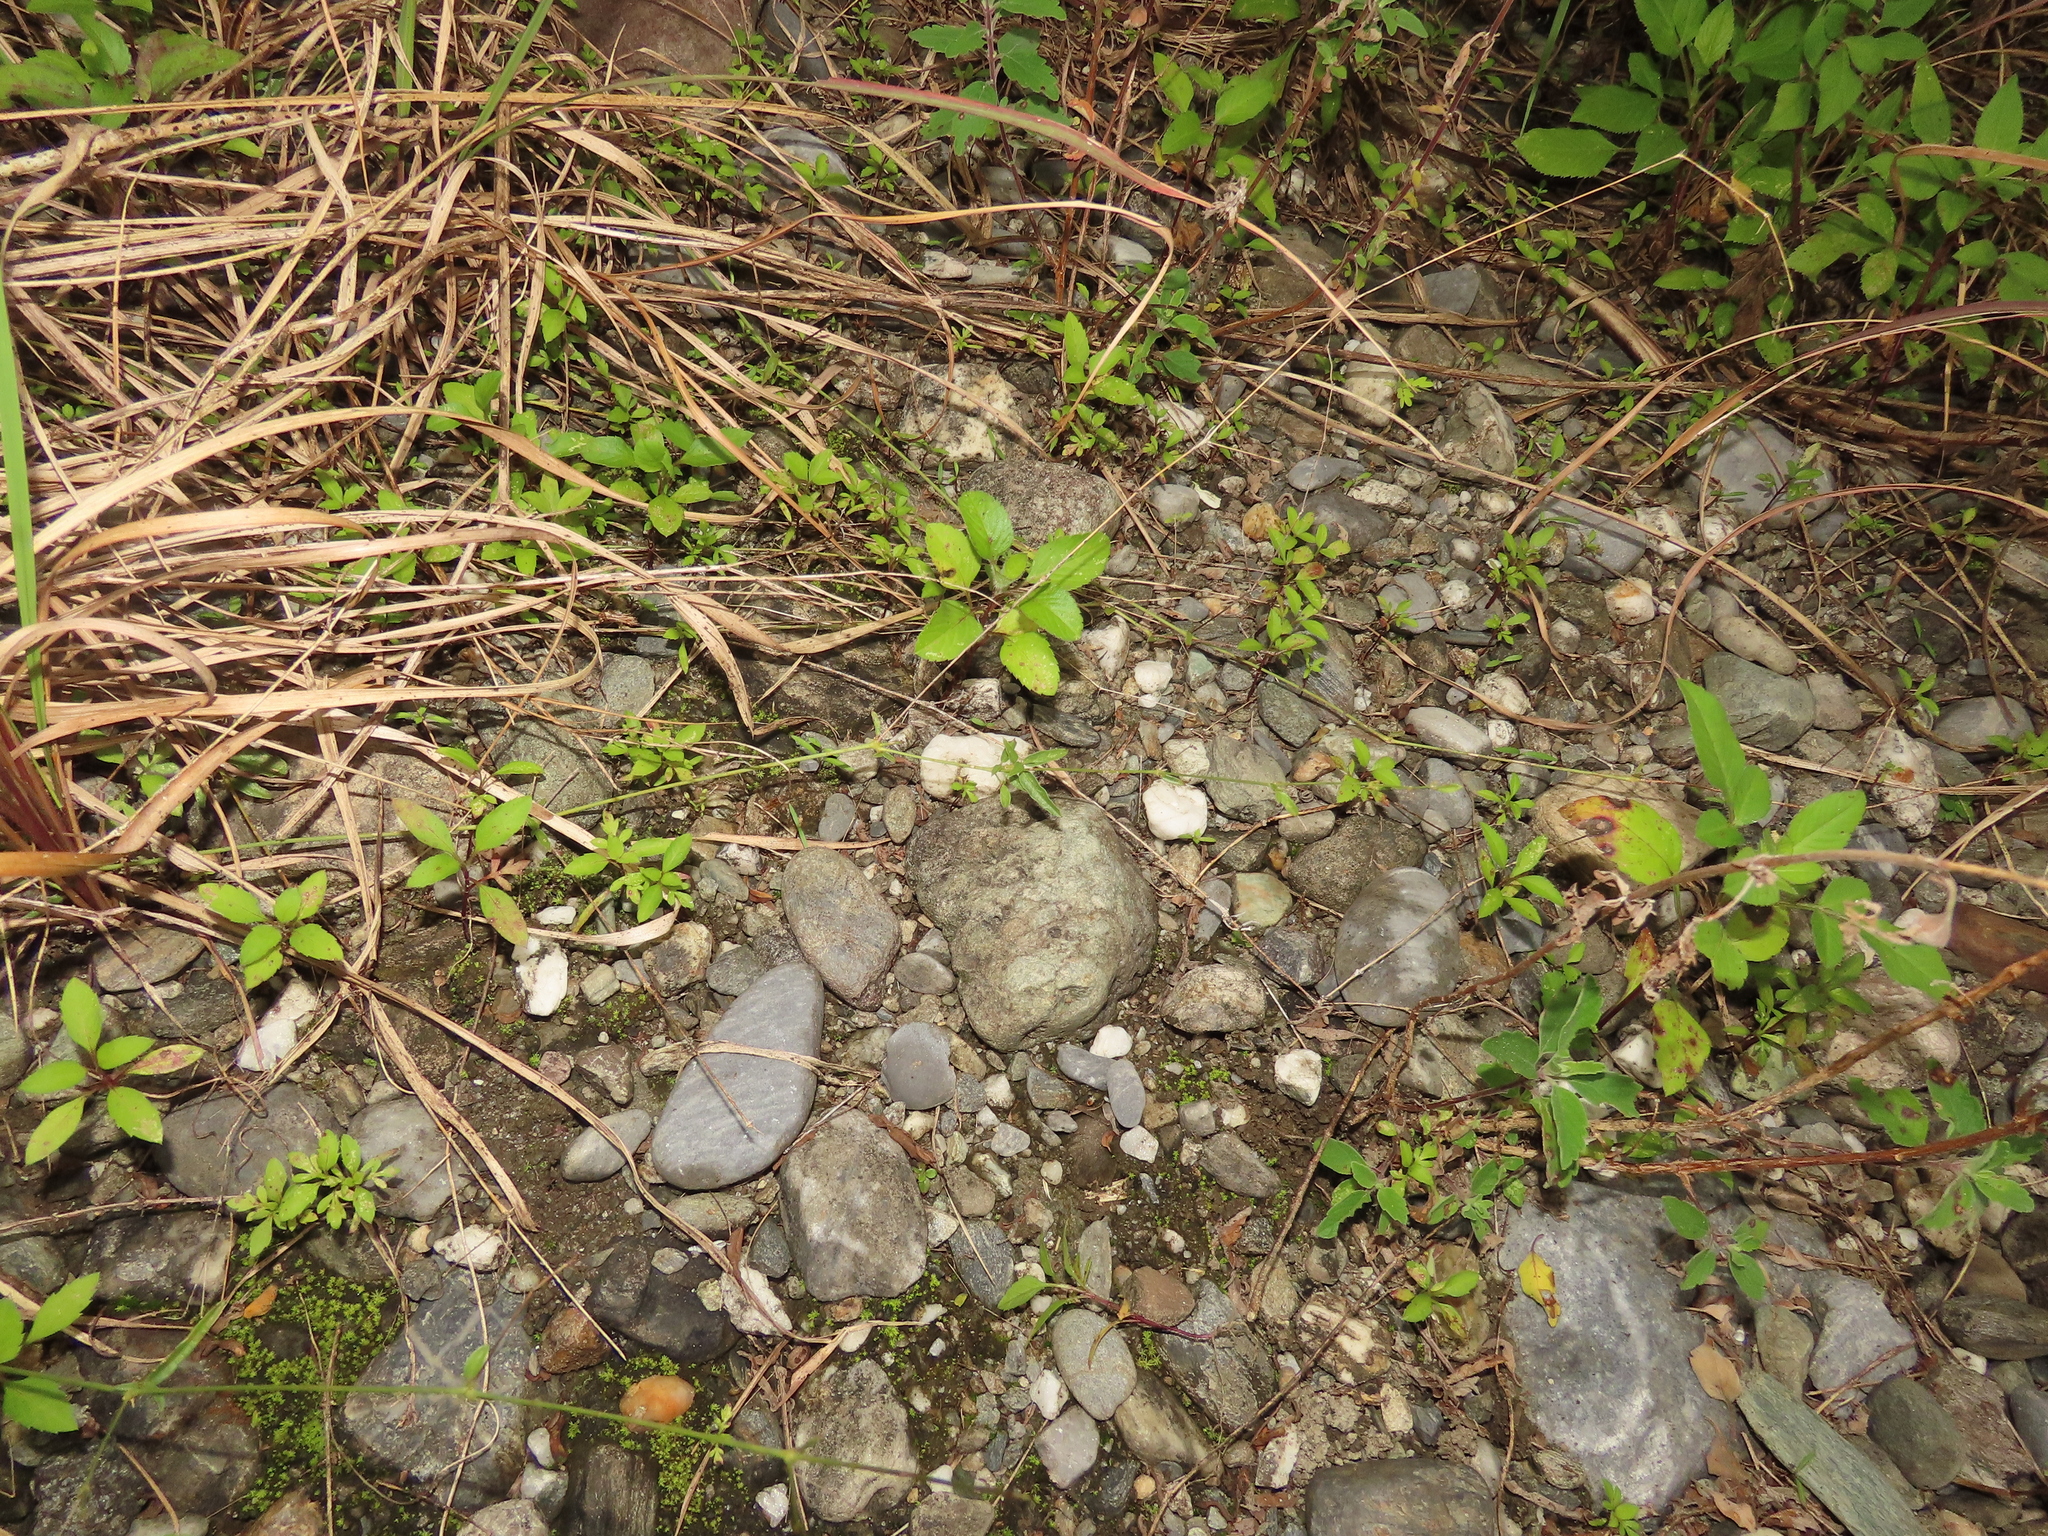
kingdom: Plantae
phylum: Tracheophyta
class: Magnoliopsida
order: Caryophyllales
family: Nyctaginaceae
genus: Boerhavia
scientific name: Boerhavia hualienensis
